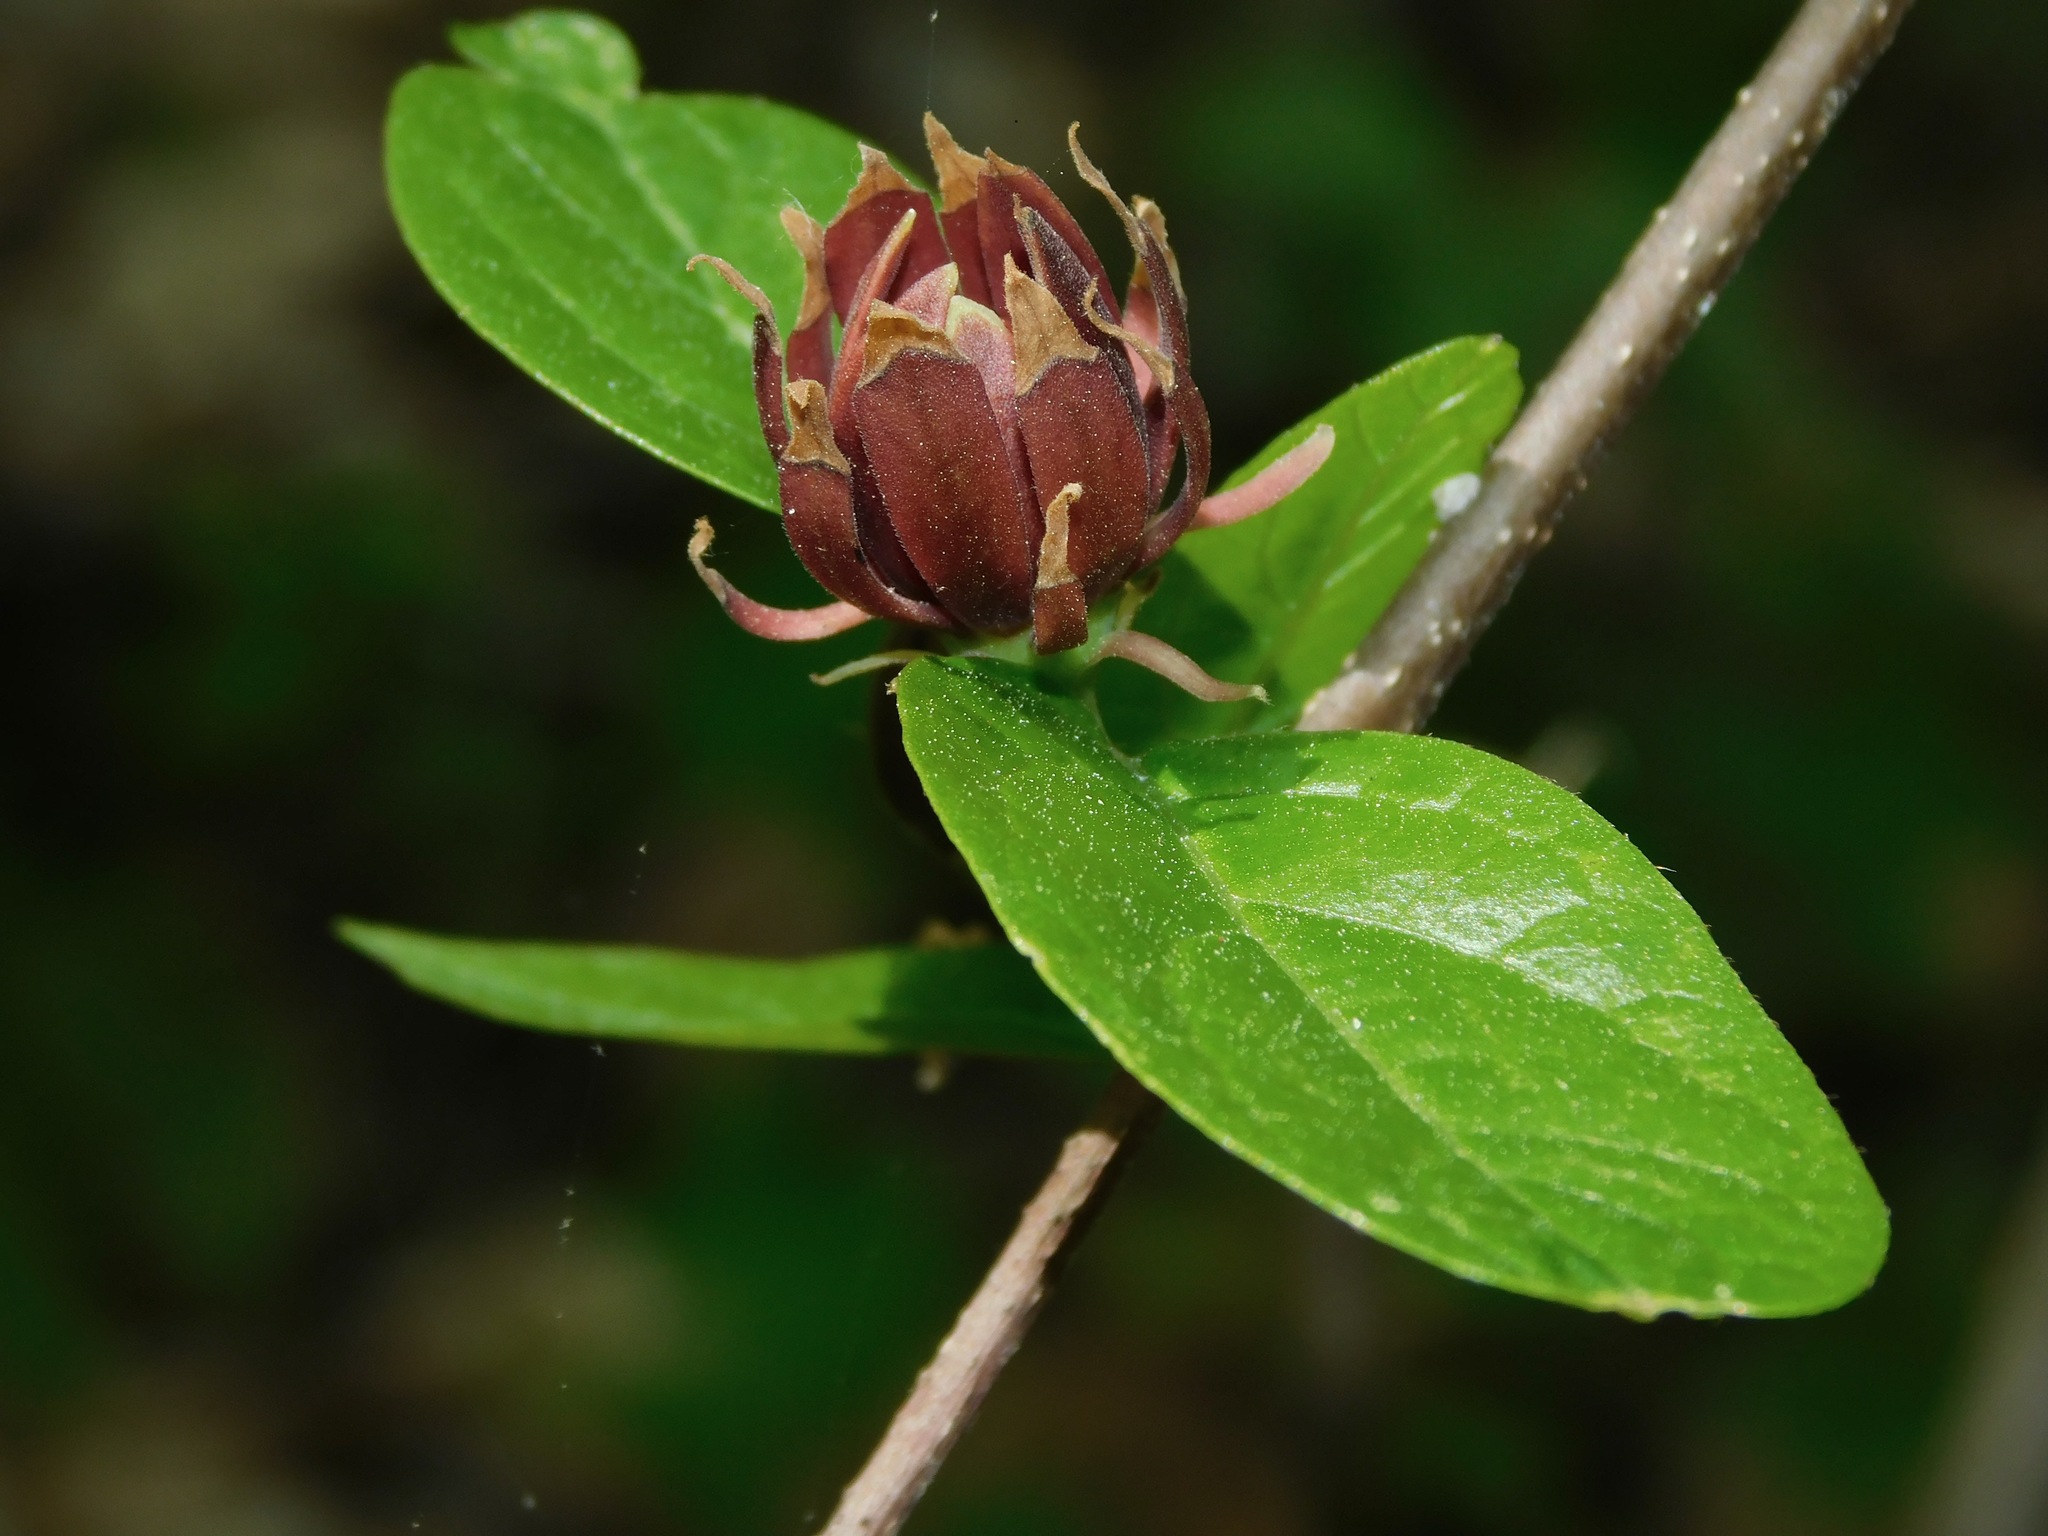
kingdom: Plantae
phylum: Tracheophyta
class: Magnoliopsida
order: Laurales
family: Calycanthaceae
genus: Calycanthus
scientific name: Calycanthus floridus
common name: Carolina-allspice
